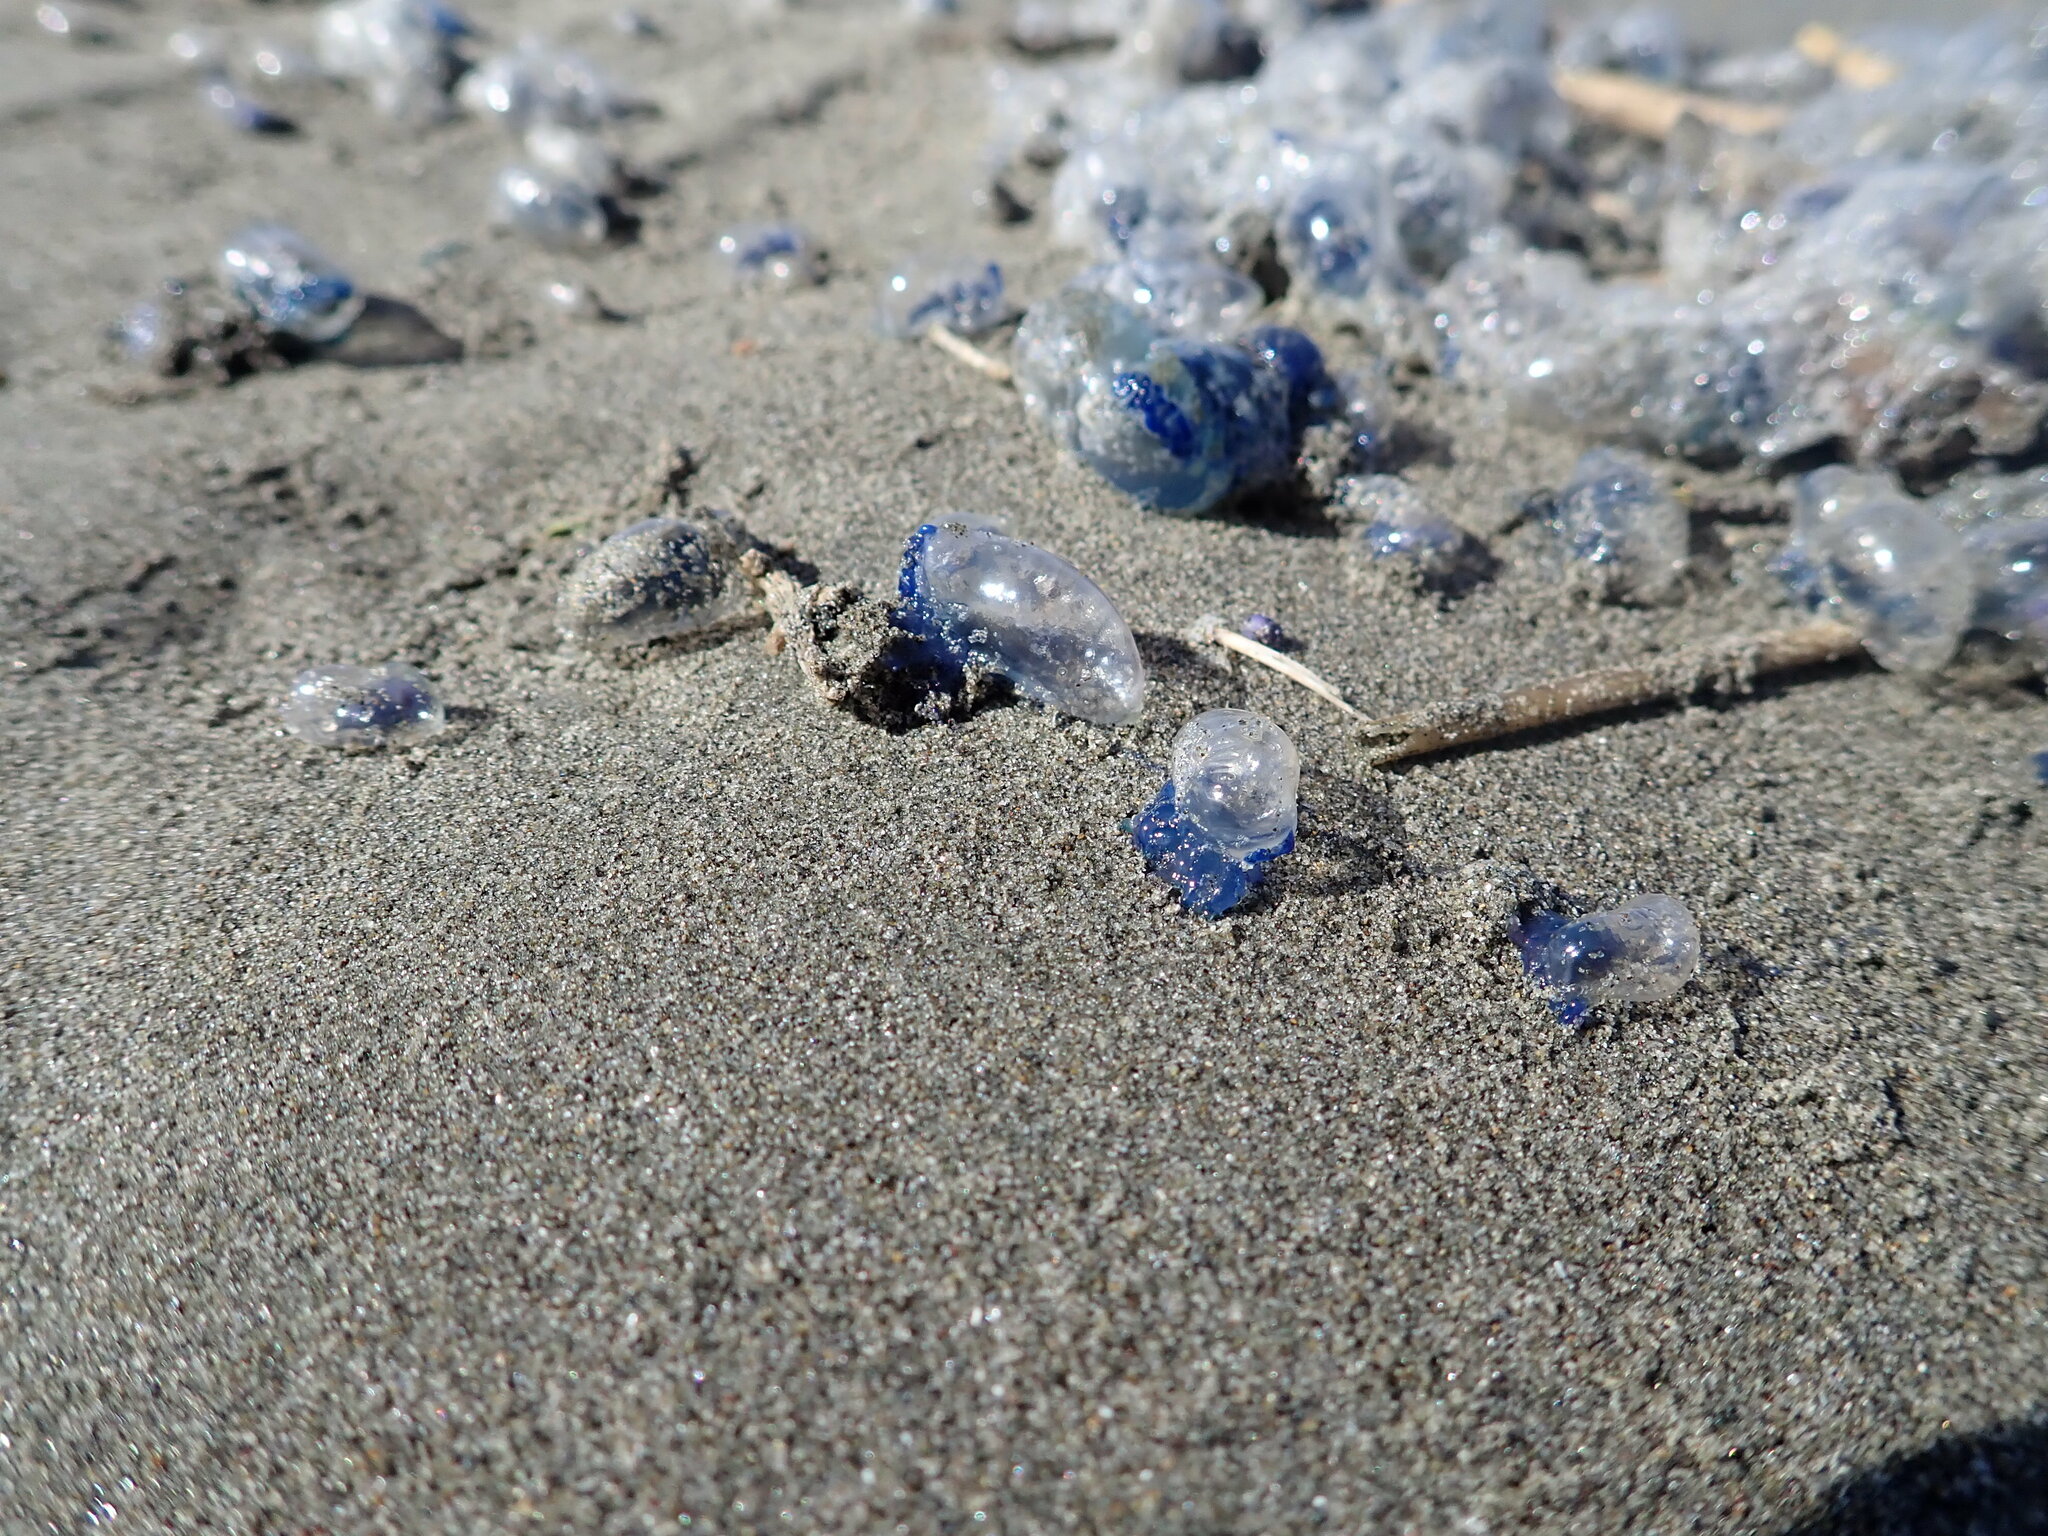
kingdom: Animalia
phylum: Cnidaria
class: Hydrozoa
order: Siphonophorae
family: Physaliidae
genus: Physalia
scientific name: Physalia physalis
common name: Portuguese man-of-war
